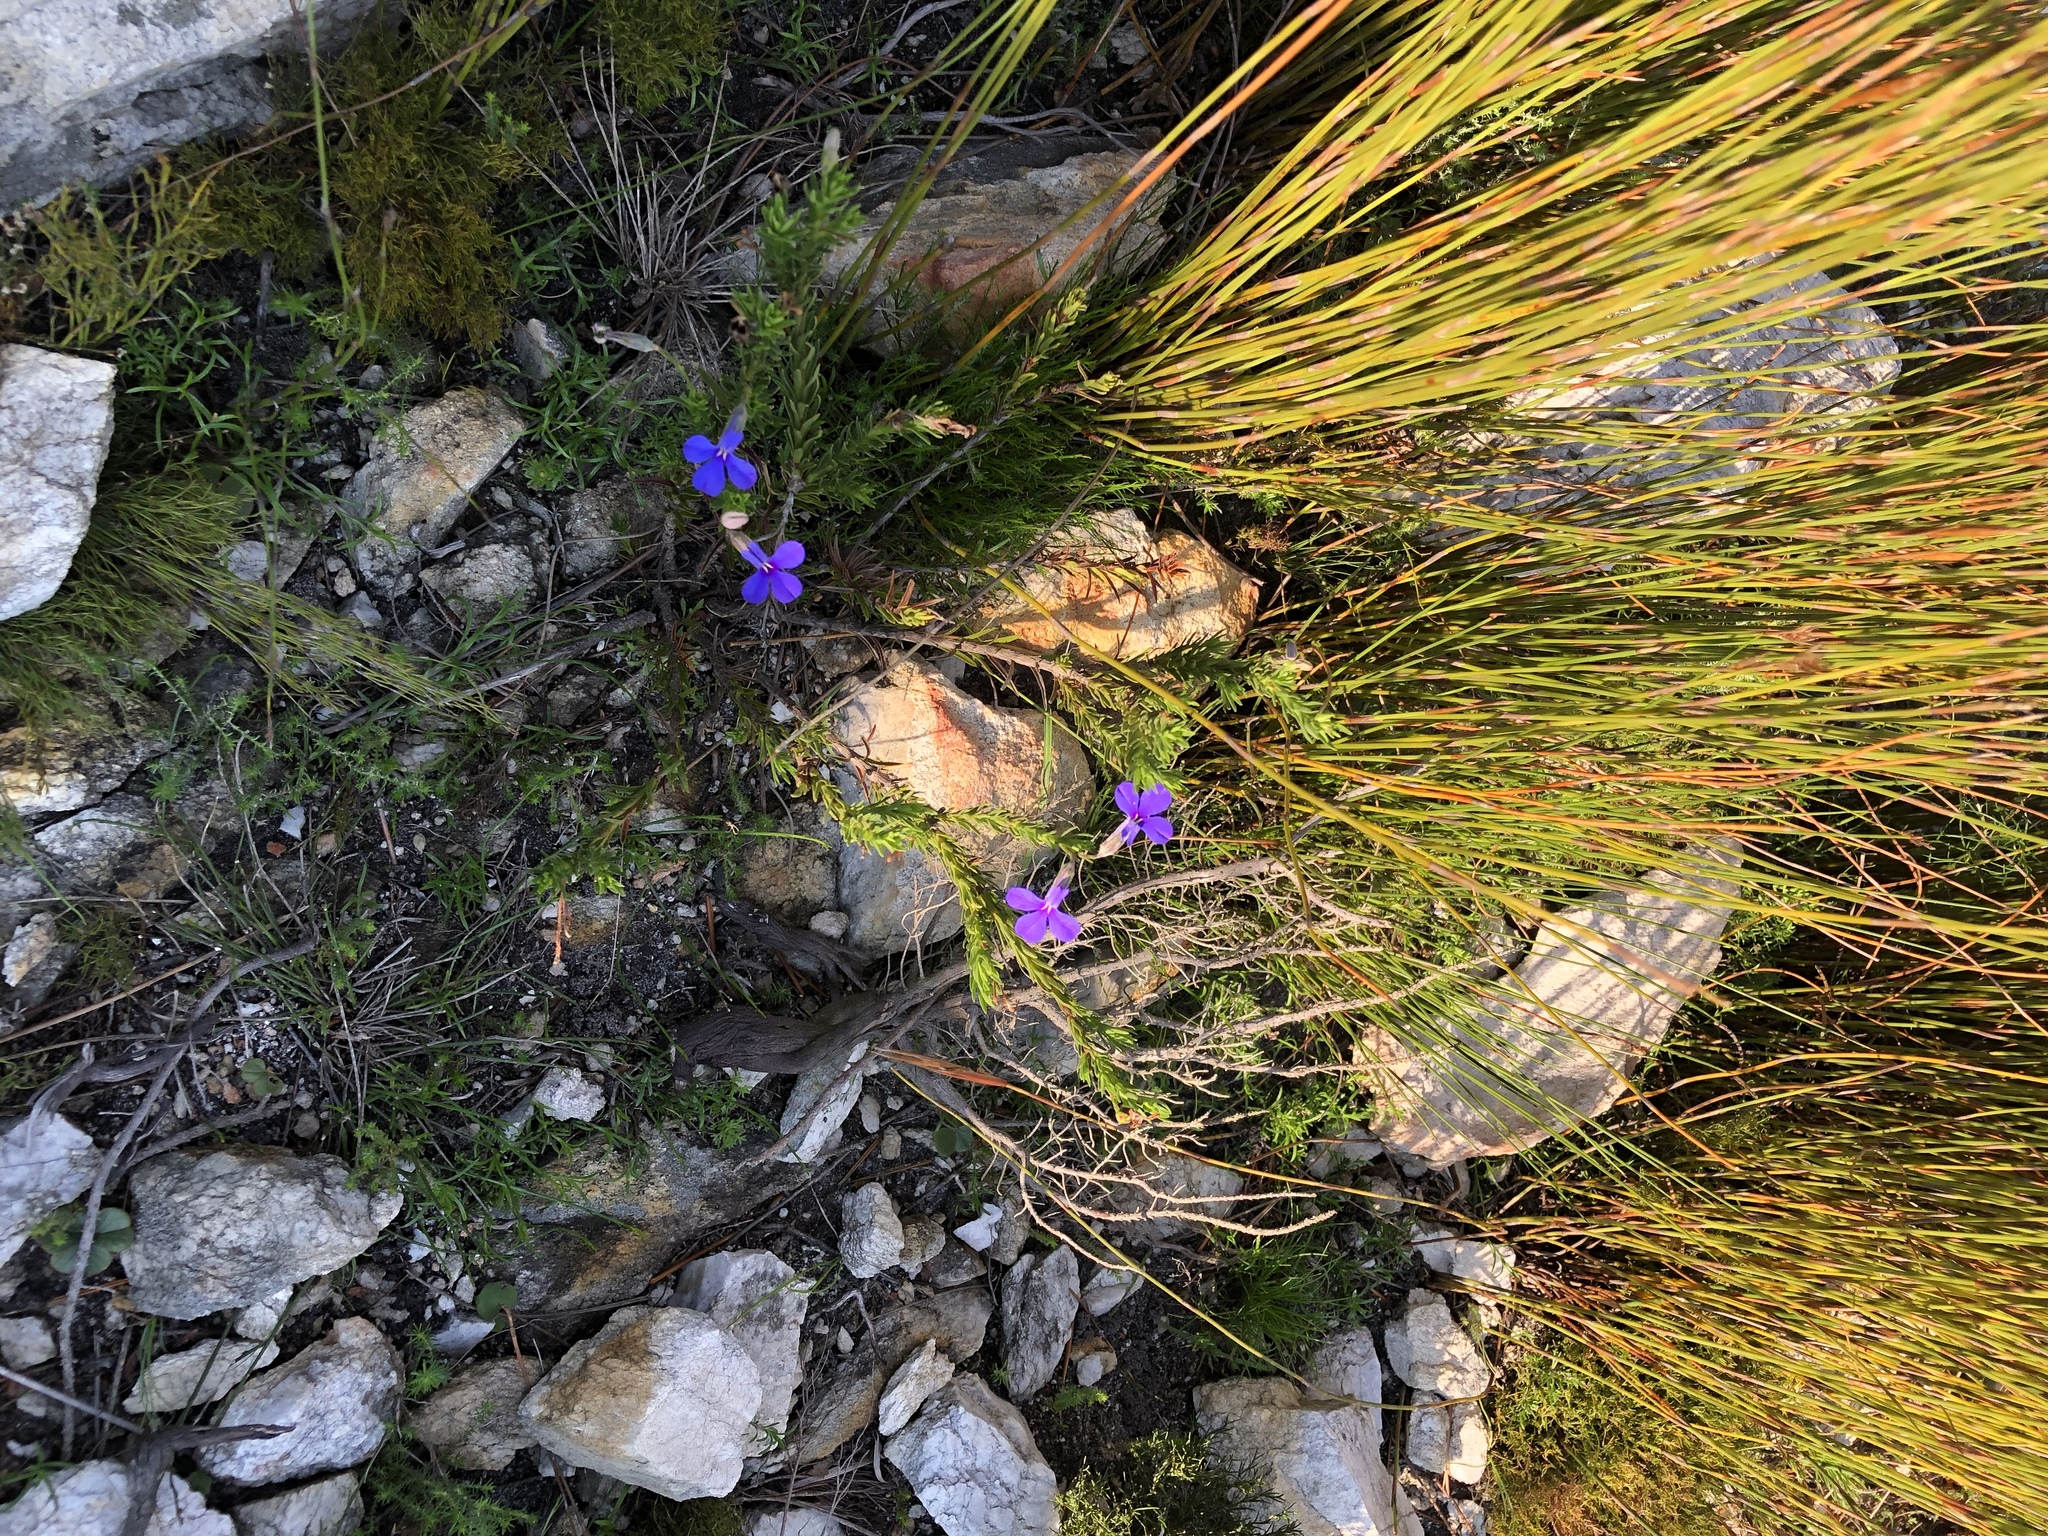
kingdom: Plantae
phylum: Tracheophyta
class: Magnoliopsida
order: Asterales
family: Campanulaceae
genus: Lobelia
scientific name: Lobelia pinifolia
